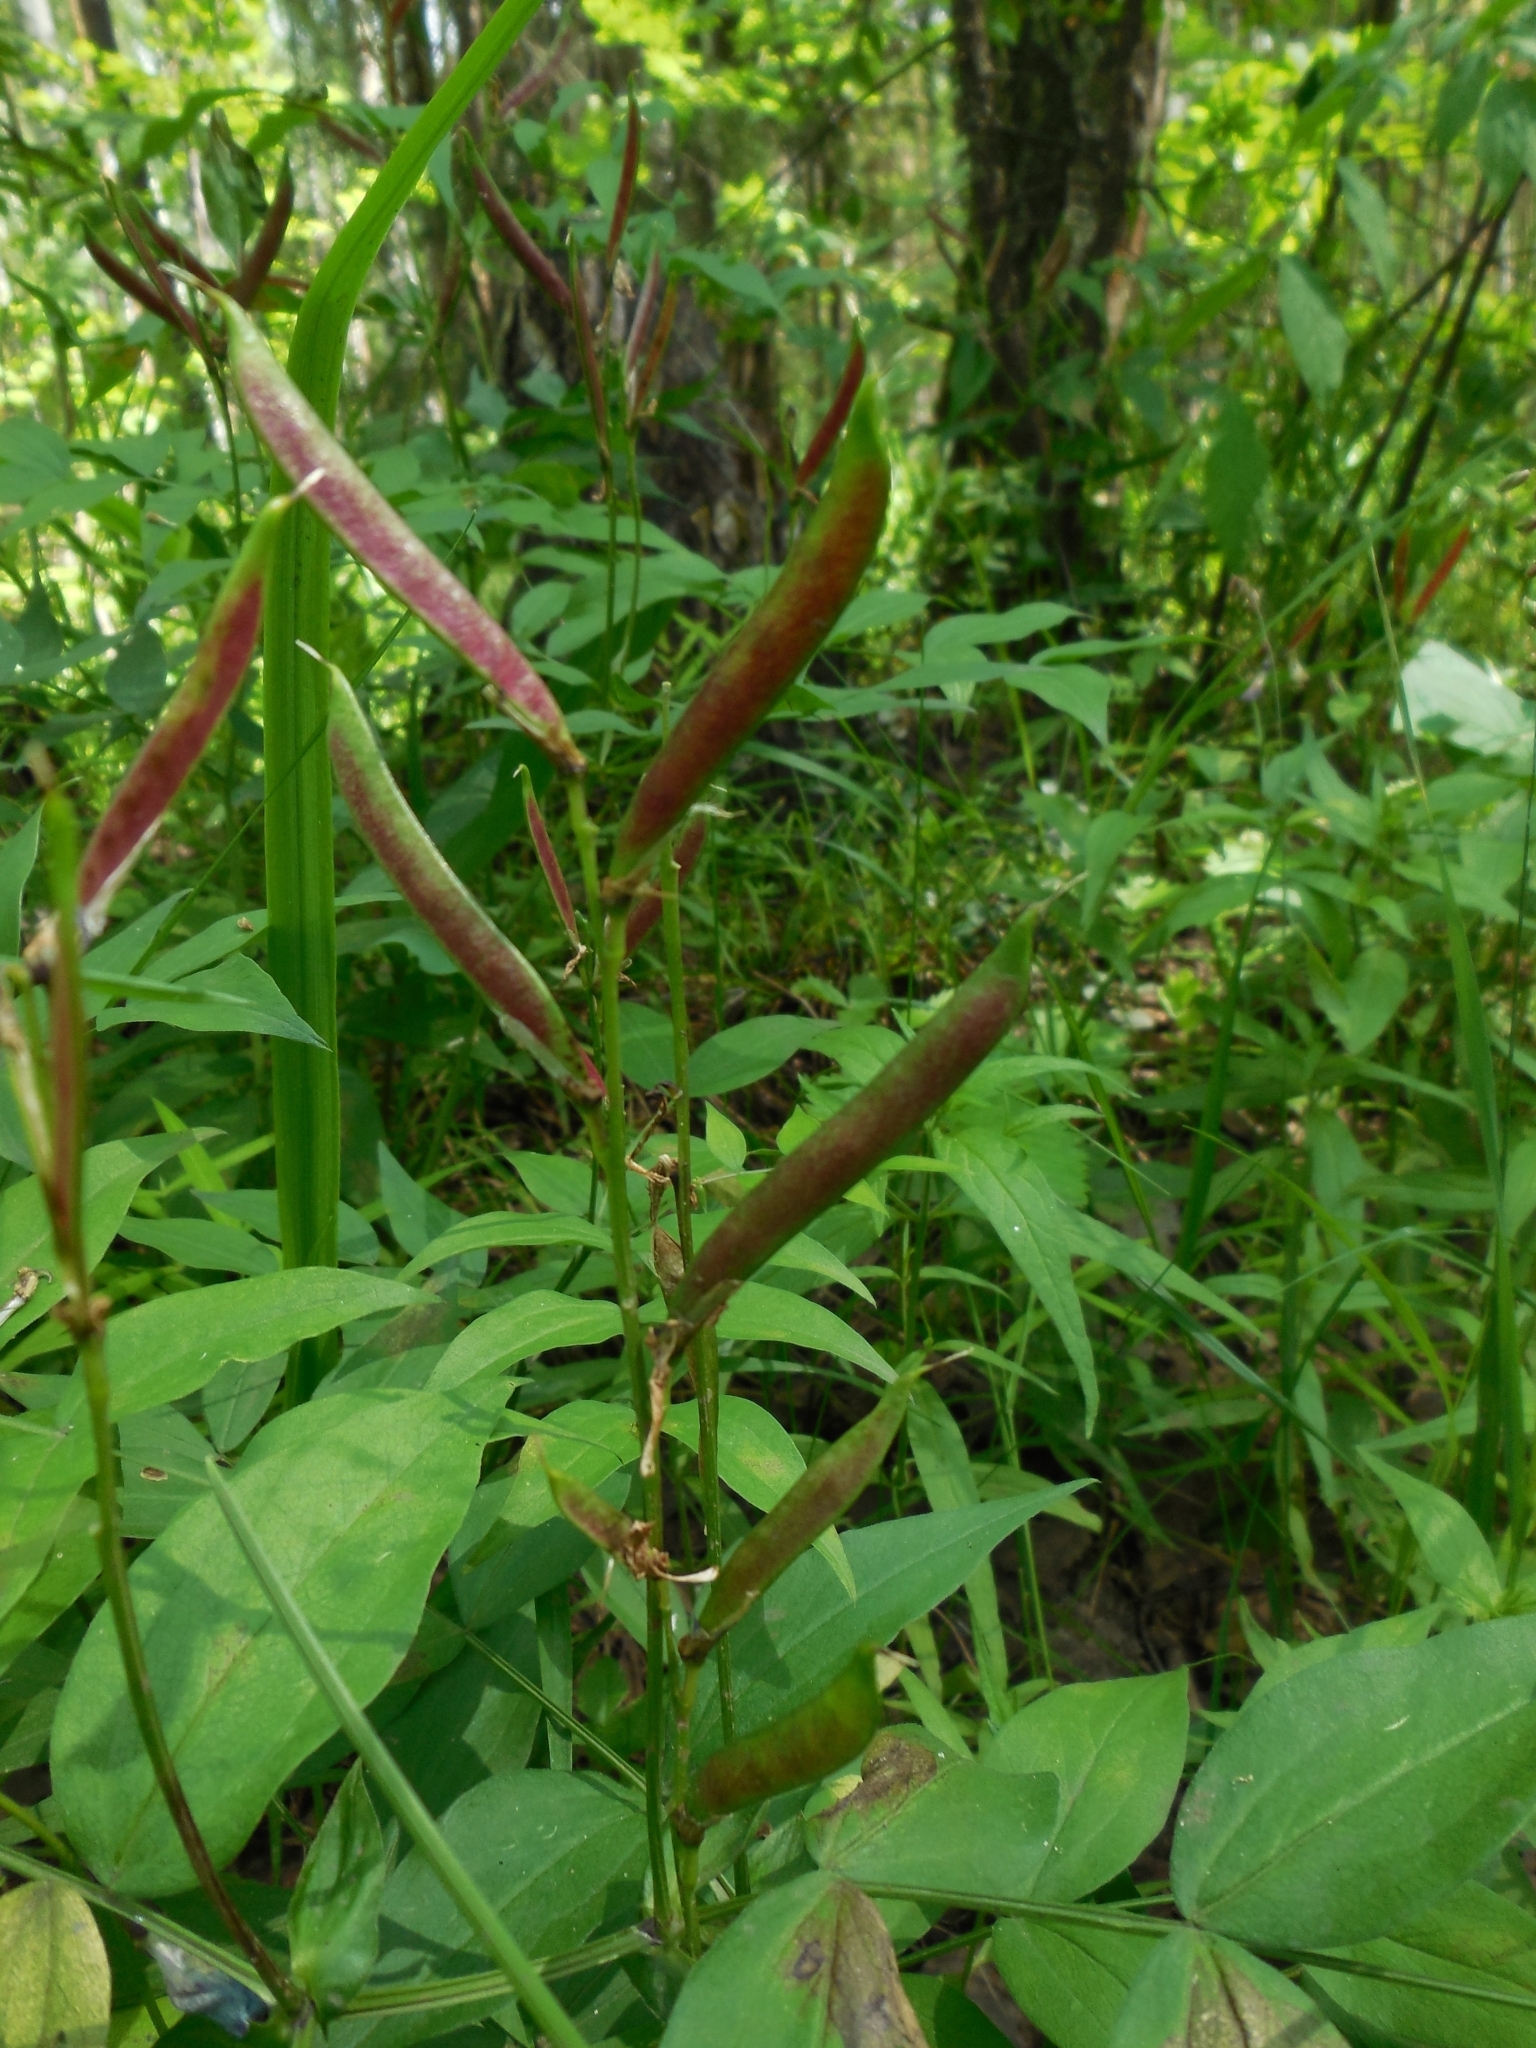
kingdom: Plantae
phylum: Tracheophyta
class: Magnoliopsida
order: Fabales
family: Fabaceae
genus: Lathyrus
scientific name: Lathyrus vernus
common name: Spring pea
